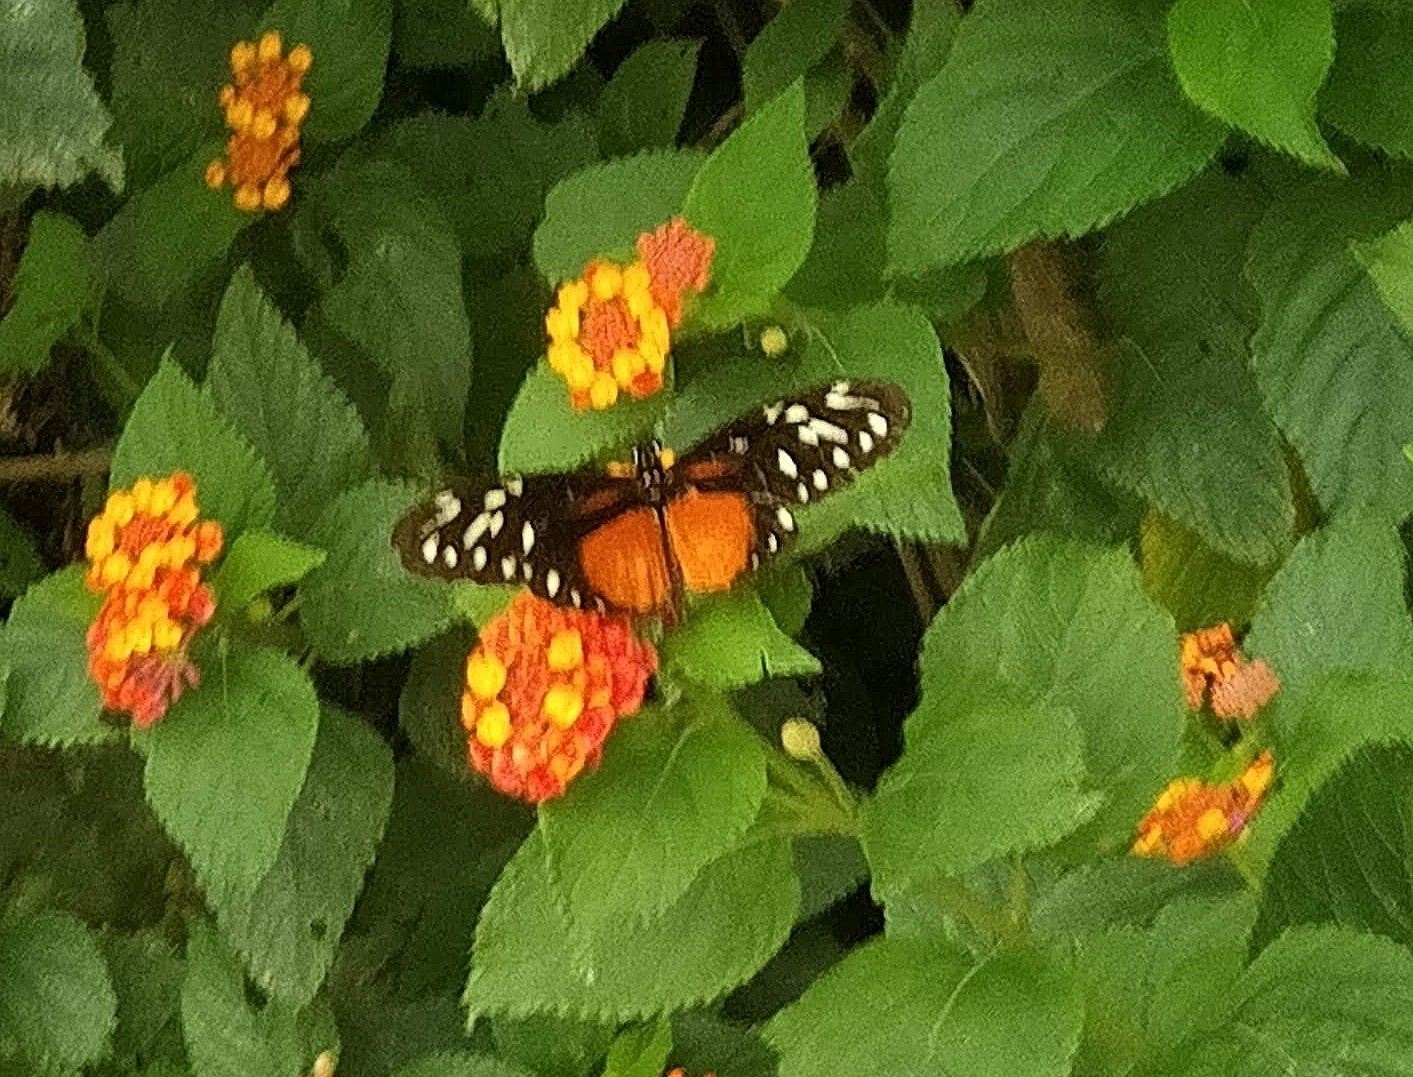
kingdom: Animalia
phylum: Arthropoda
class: Insecta
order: Lepidoptera
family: Nymphalidae
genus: Heliconius
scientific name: Heliconius hecalesia
